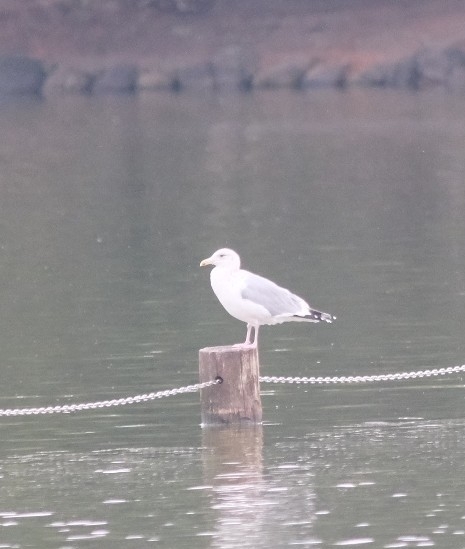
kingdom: Animalia
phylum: Chordata
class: Aves
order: Charadriiformes
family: Laridae
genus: Larus
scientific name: Larus argentatus
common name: Herring gull
